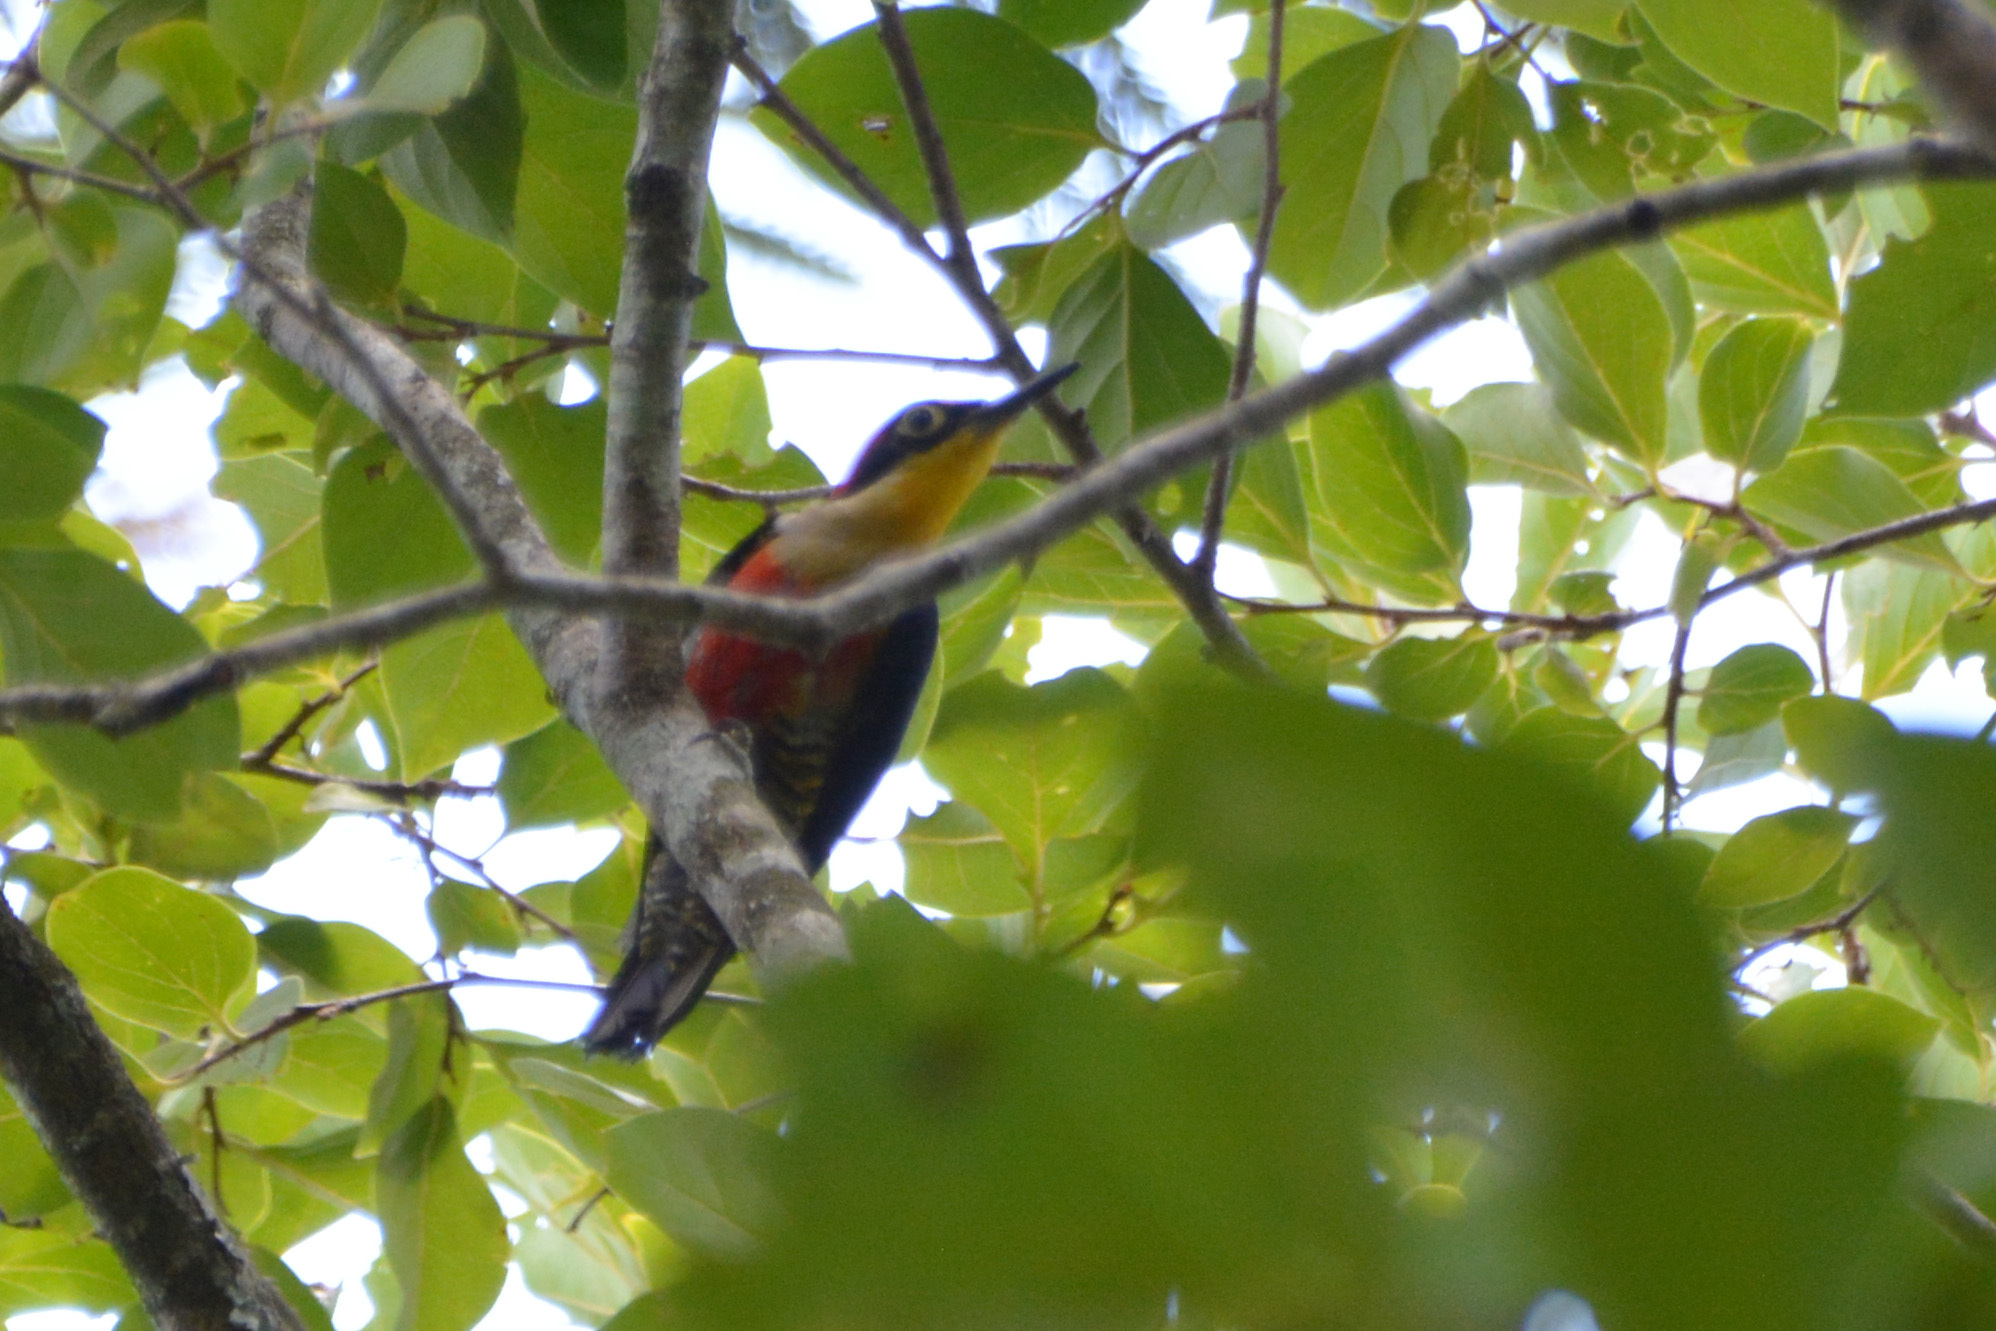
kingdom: Animalia
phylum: Chordata
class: Aves
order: Piciformes
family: Picidae
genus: Melanerpes
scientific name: Melanerpes flavifrons
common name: Yellow-fronted woodpecker
